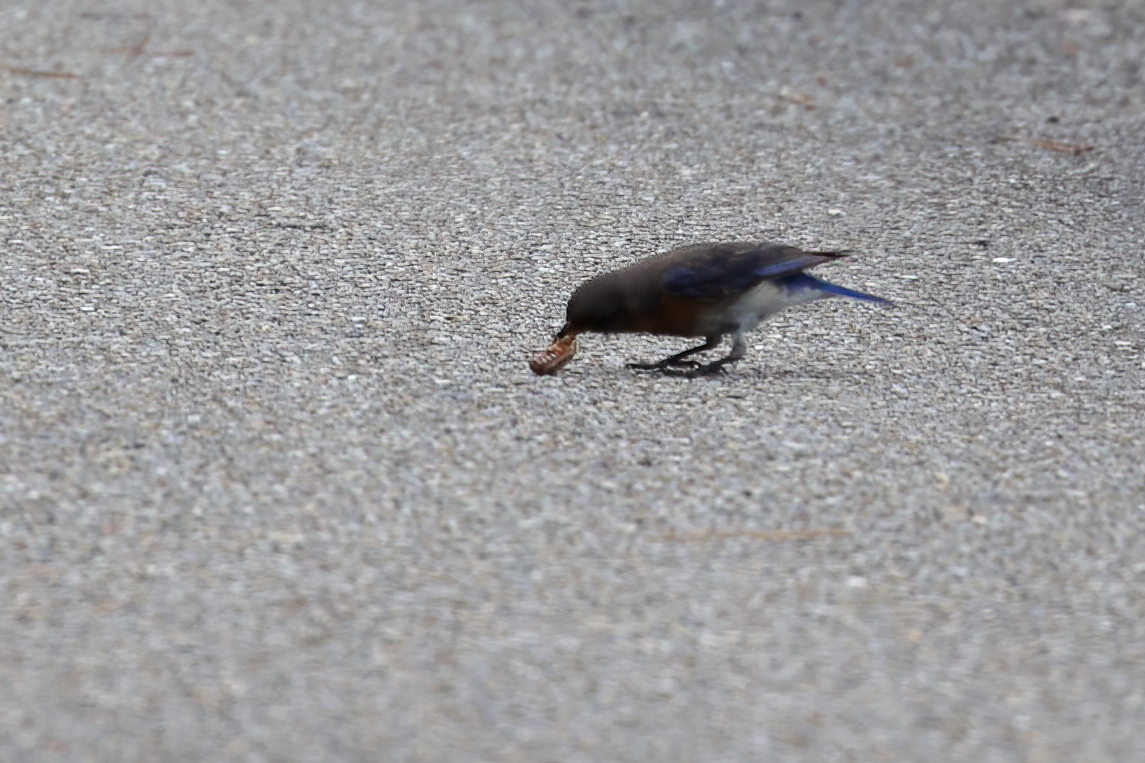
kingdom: Animalia
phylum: Chordata
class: Aves
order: Passeriformes
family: Turdidae
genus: Sialia
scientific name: Sialia sialis
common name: Eastern bluebird
